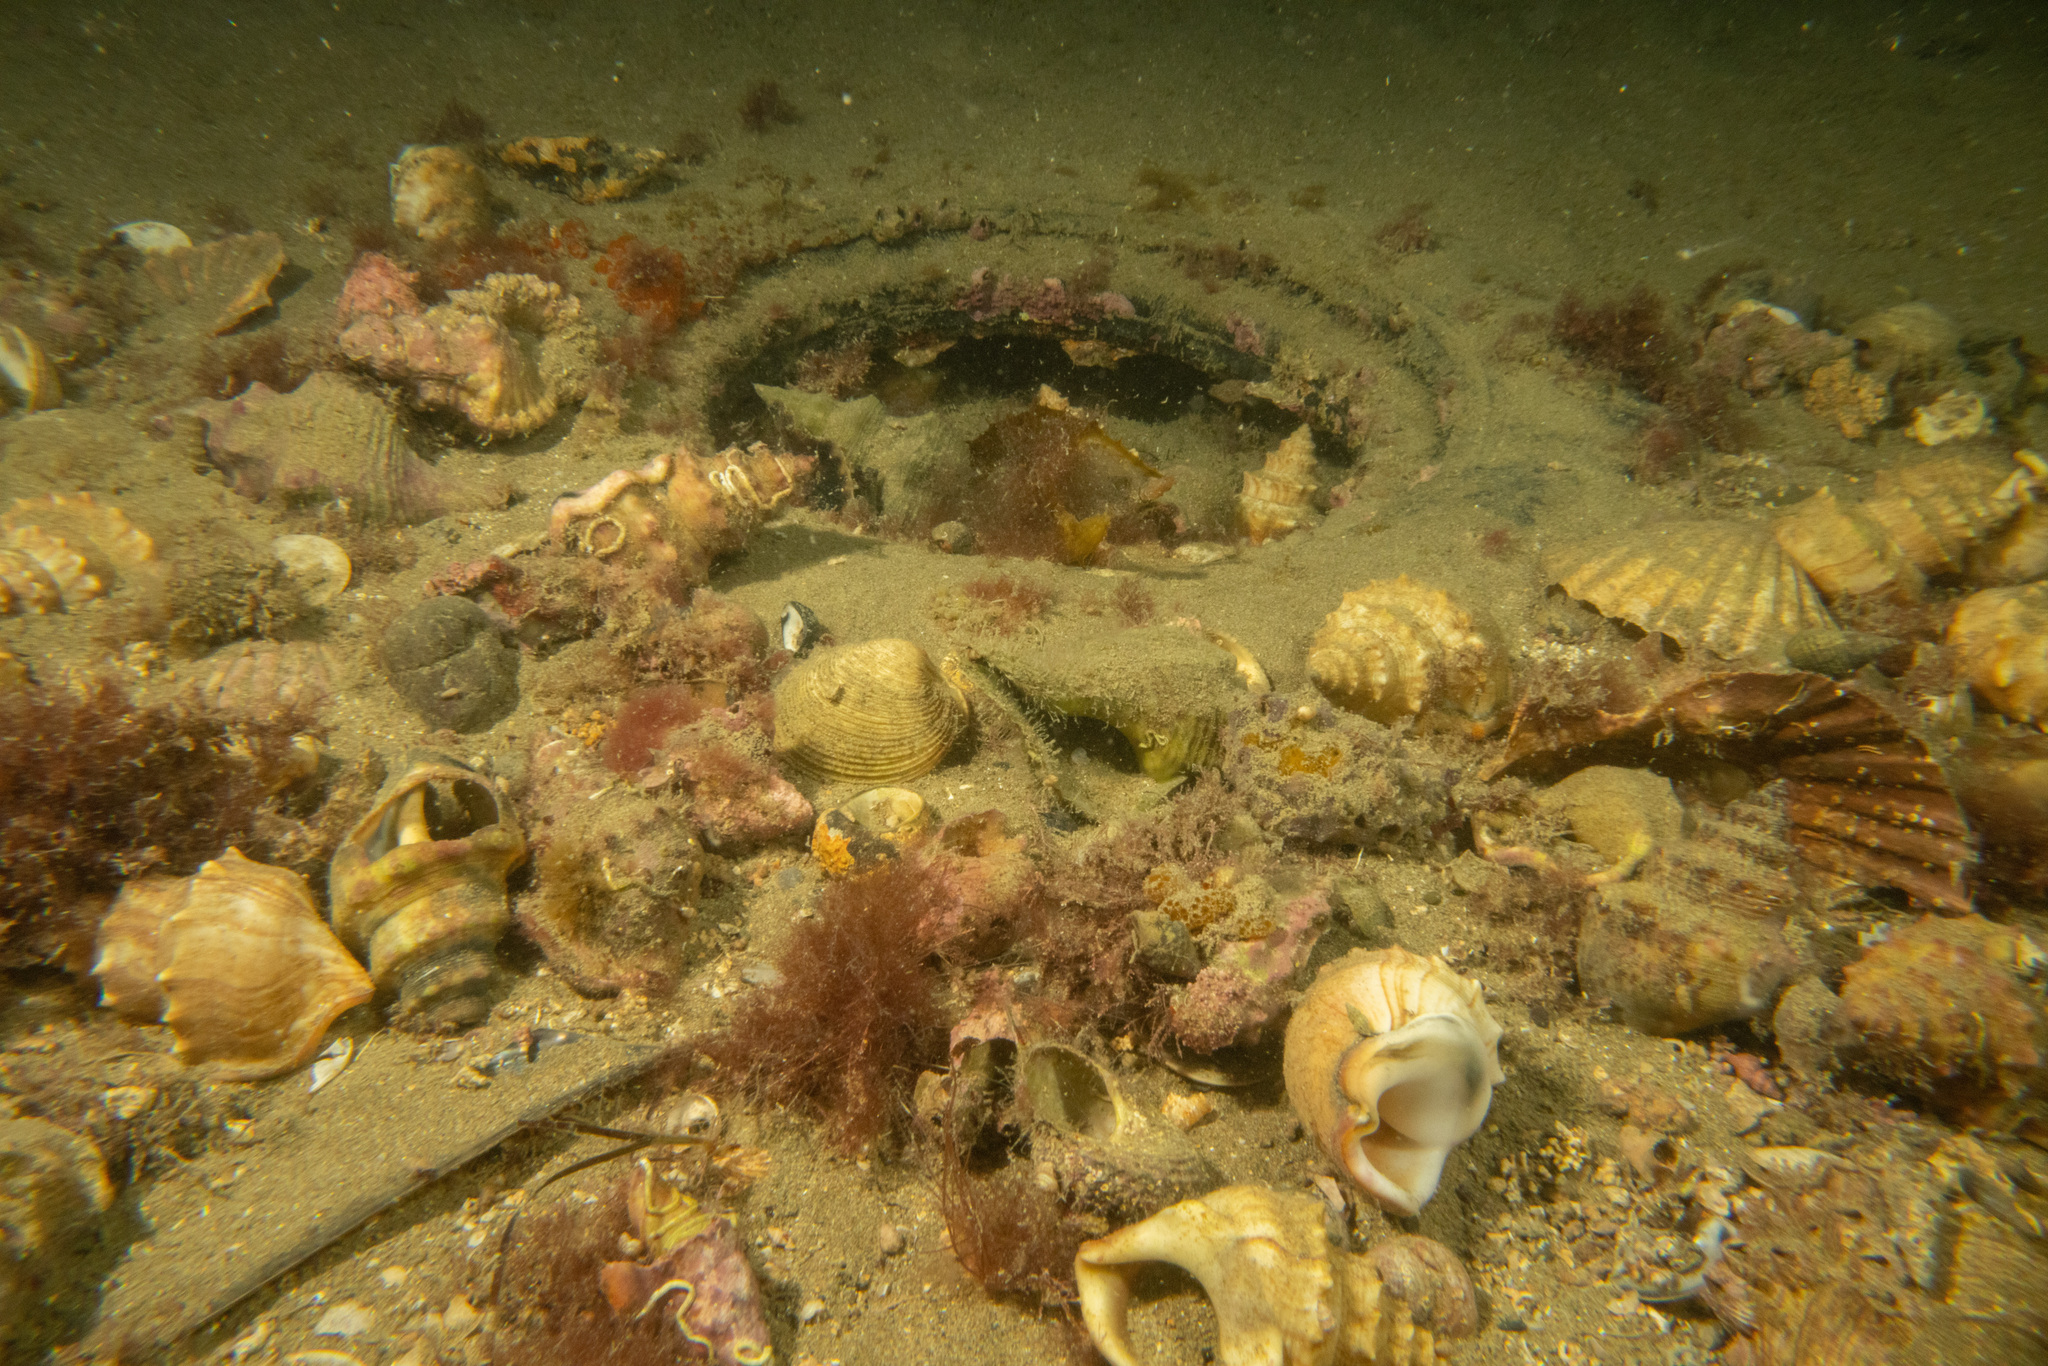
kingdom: Animalia
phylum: Mollusca
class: Gastropoda
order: Littorinimorpha
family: Struthiolariidae
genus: Struthiolaria
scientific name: Struthiolaria papulosa
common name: Large ostrich foot
